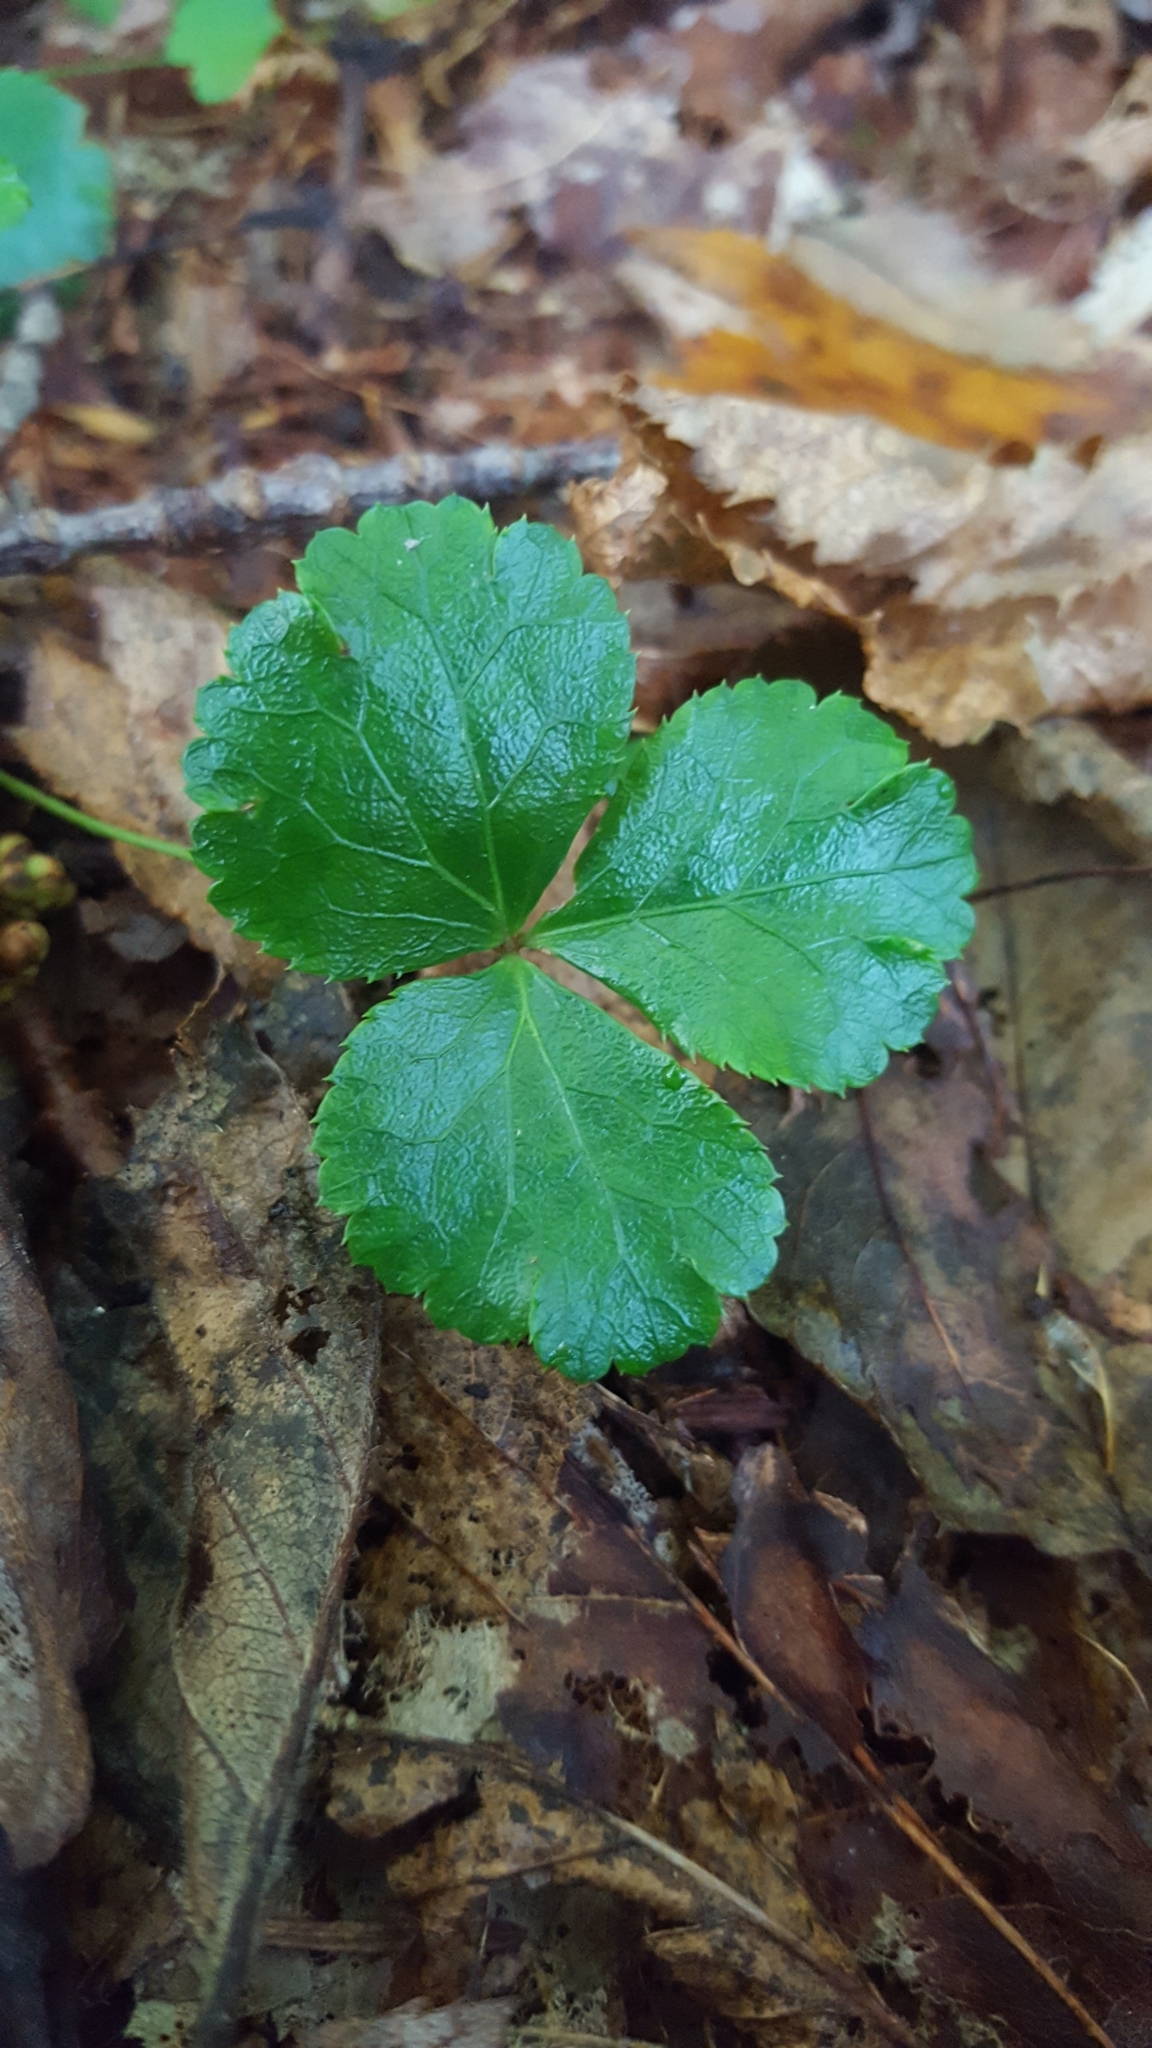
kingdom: Plantae
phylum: Tracheophyta
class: Magnoliopsida
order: Ranunculales
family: Ranunculaceae
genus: Coptis
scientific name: Coptis trifolia
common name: Canker-root
